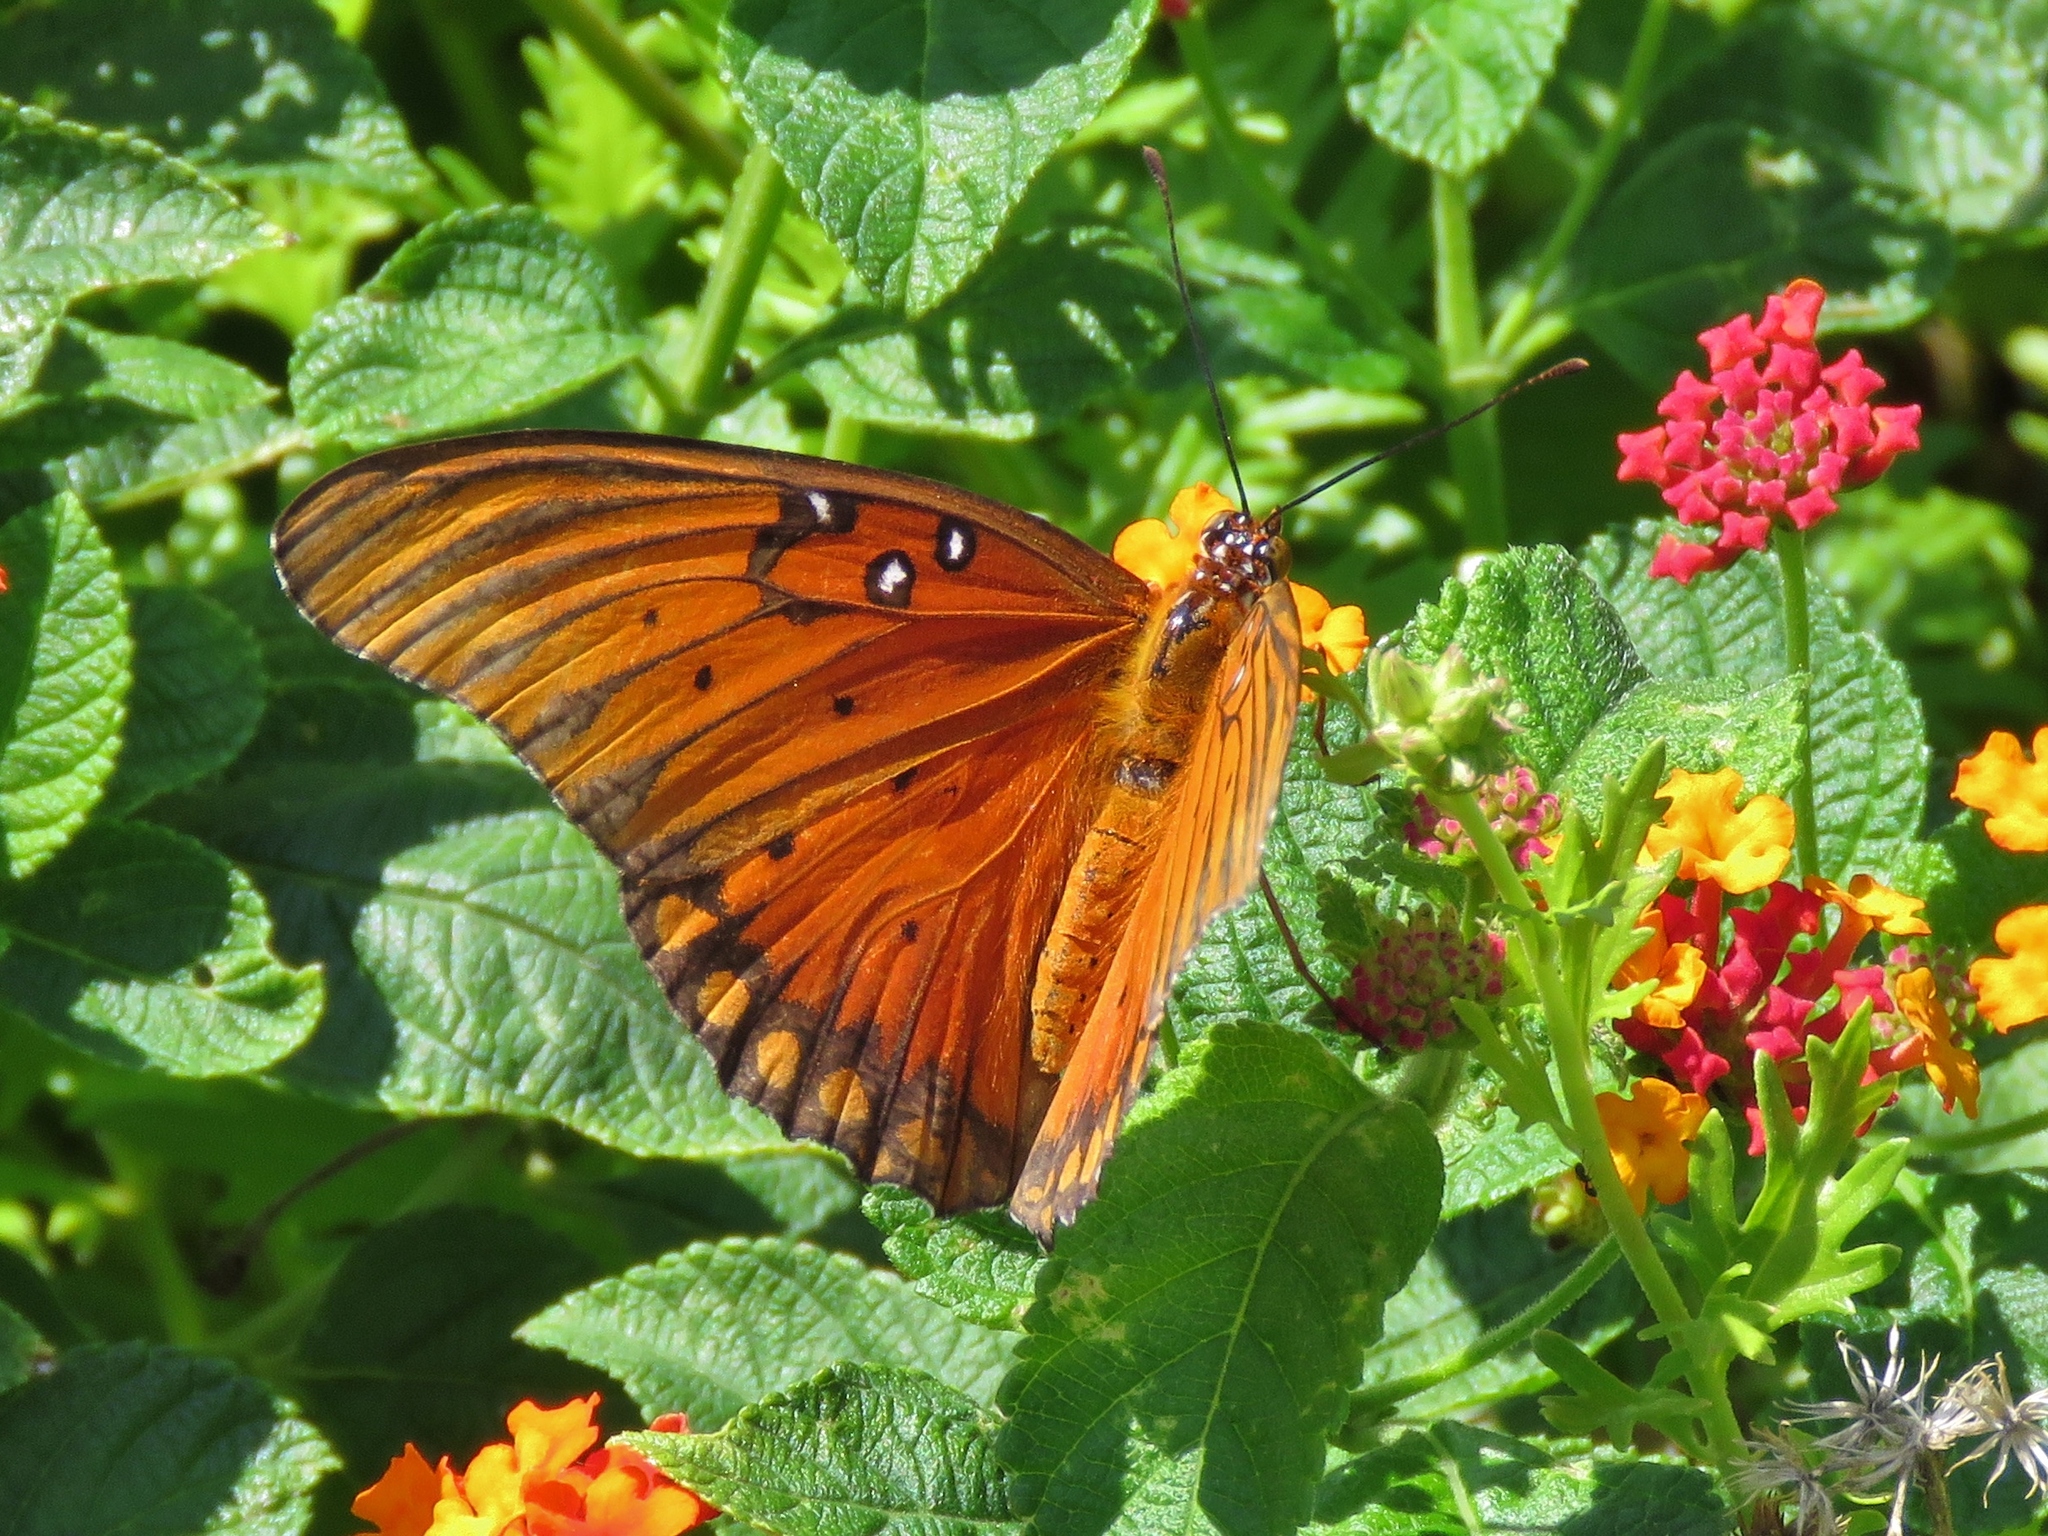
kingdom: Animalia
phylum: Arthropoda
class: Insecta
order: Lepidoptera
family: Nymphalidae
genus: Dione
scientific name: Dione vanillae
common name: Gulf fritillary
